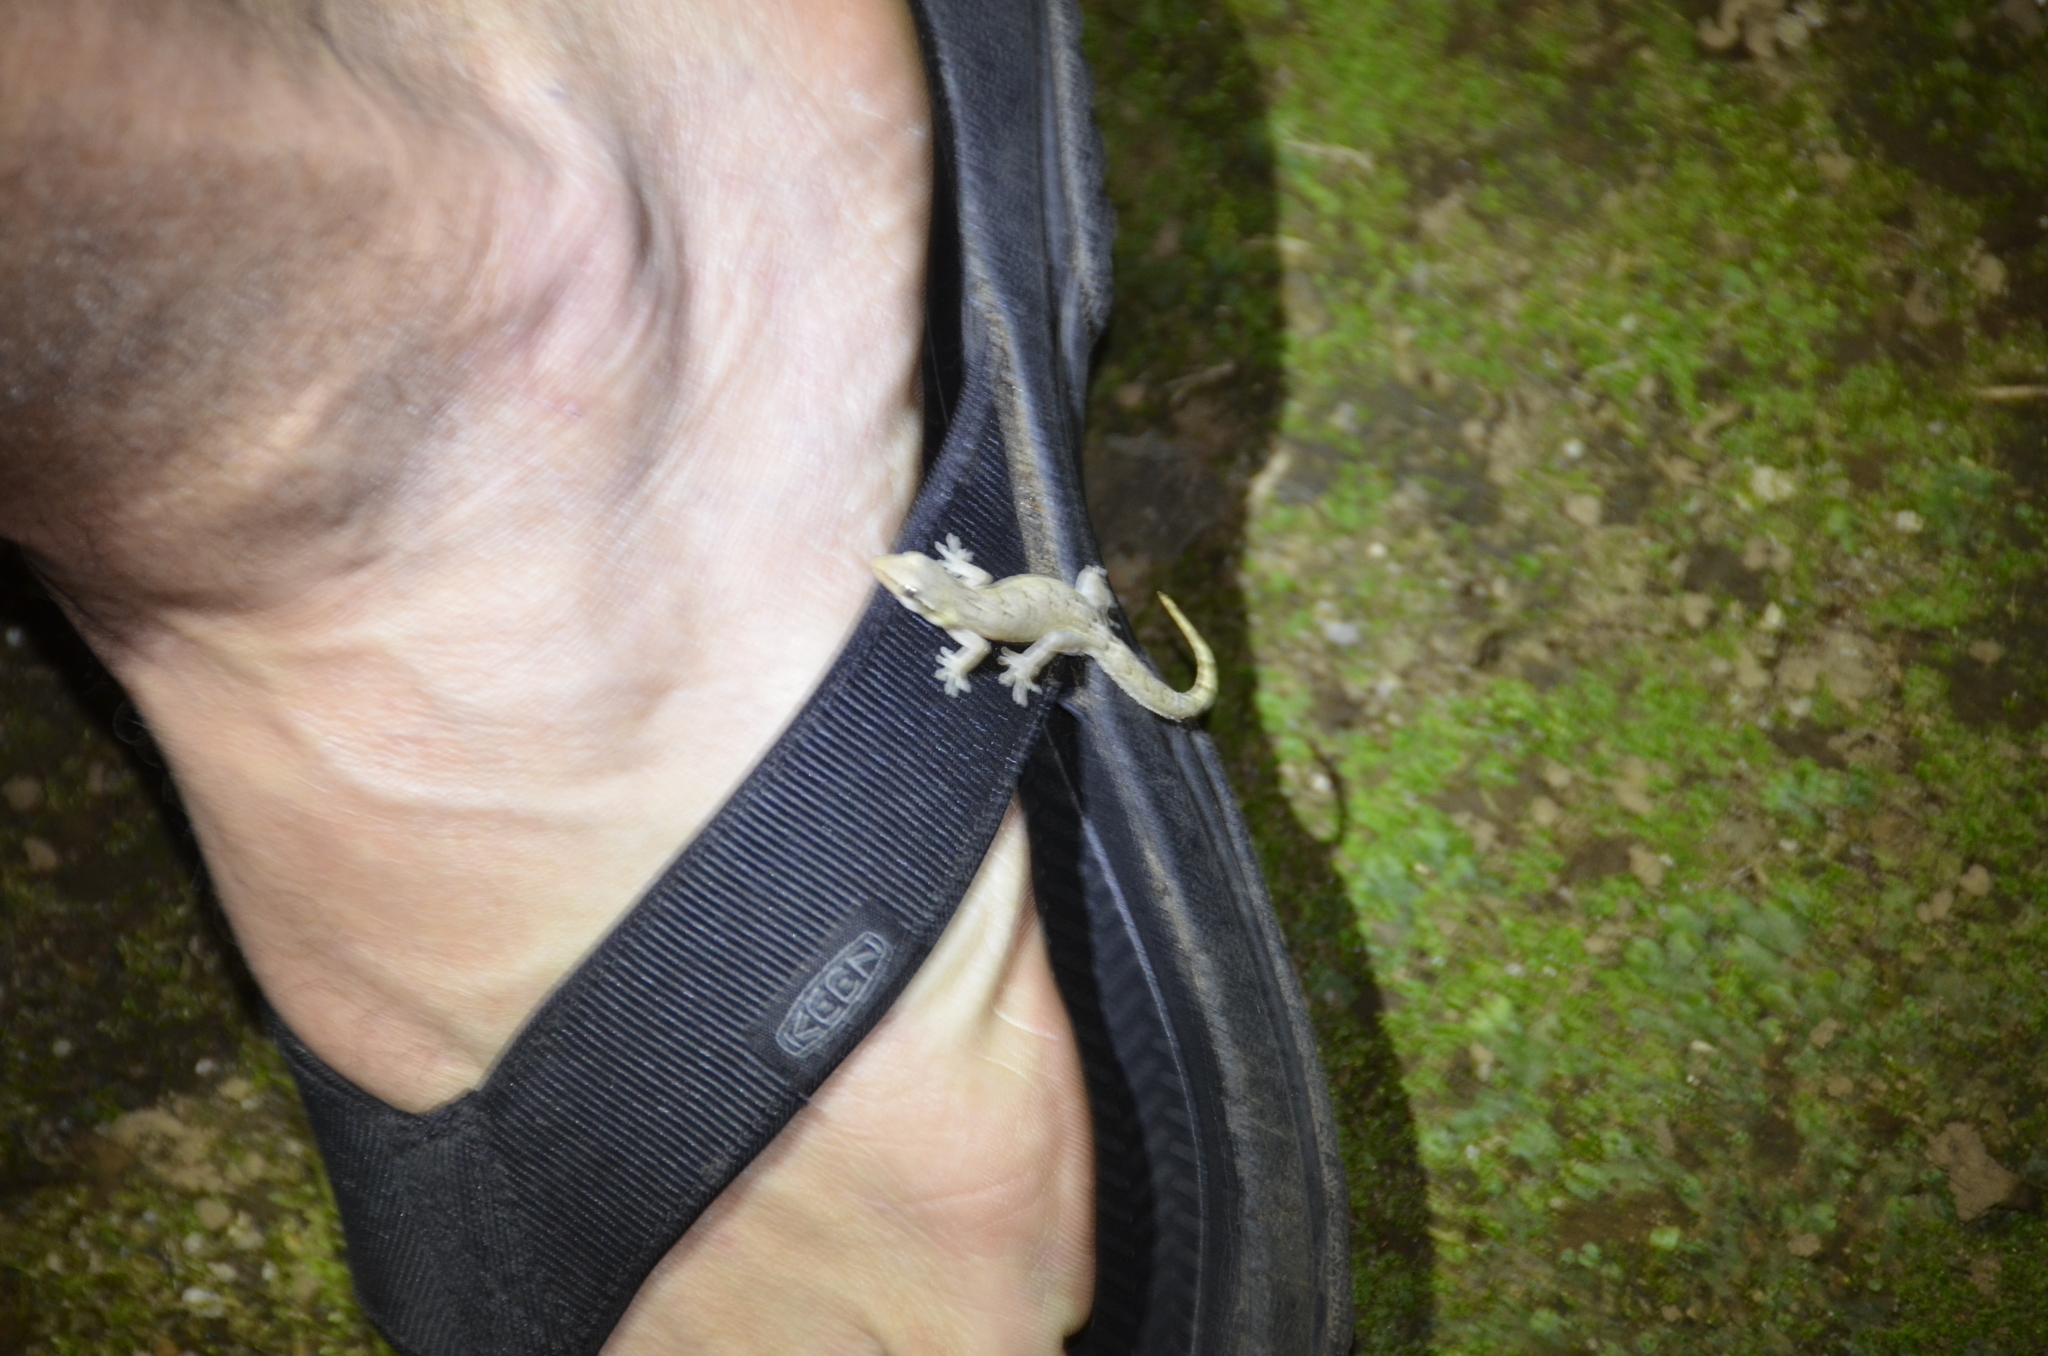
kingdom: Animalia
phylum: Chordata
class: Squamata
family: Gekkonidae
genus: Lepidodactylus
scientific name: Lepidodactylus lugubris
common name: Mourning gecko
